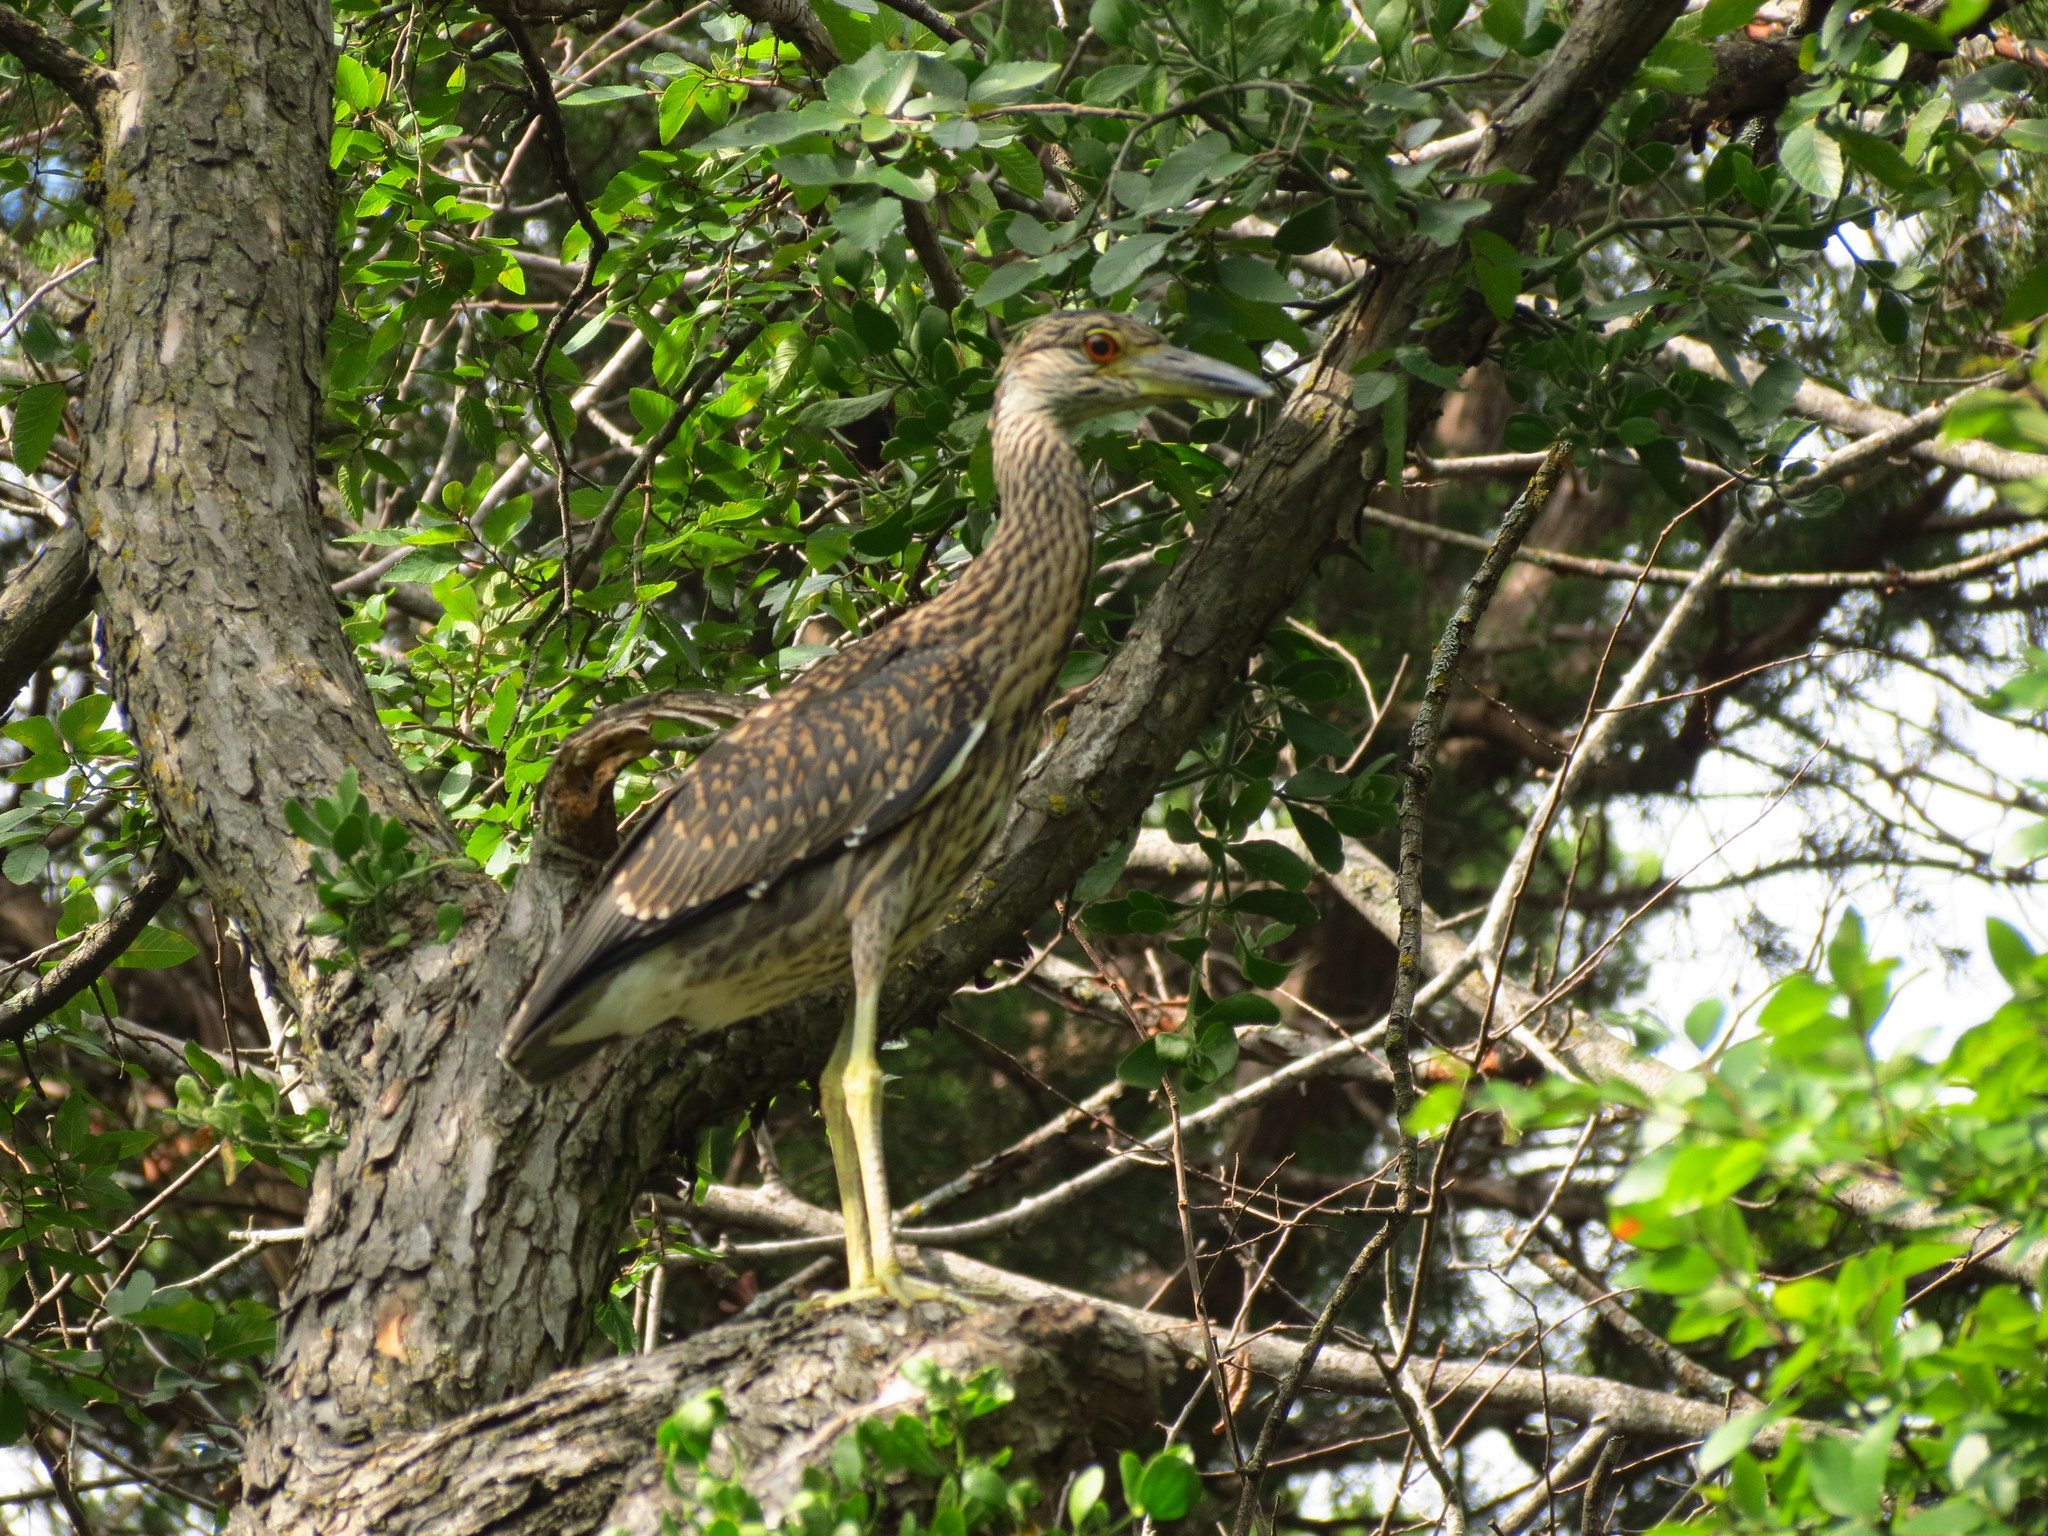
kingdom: Animalia
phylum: Chordata
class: Aves
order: Pelecaniformes
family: Ardeidae
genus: Nyctanassa
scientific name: Nyctanassa violacea
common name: Yellow-crowned night heron
